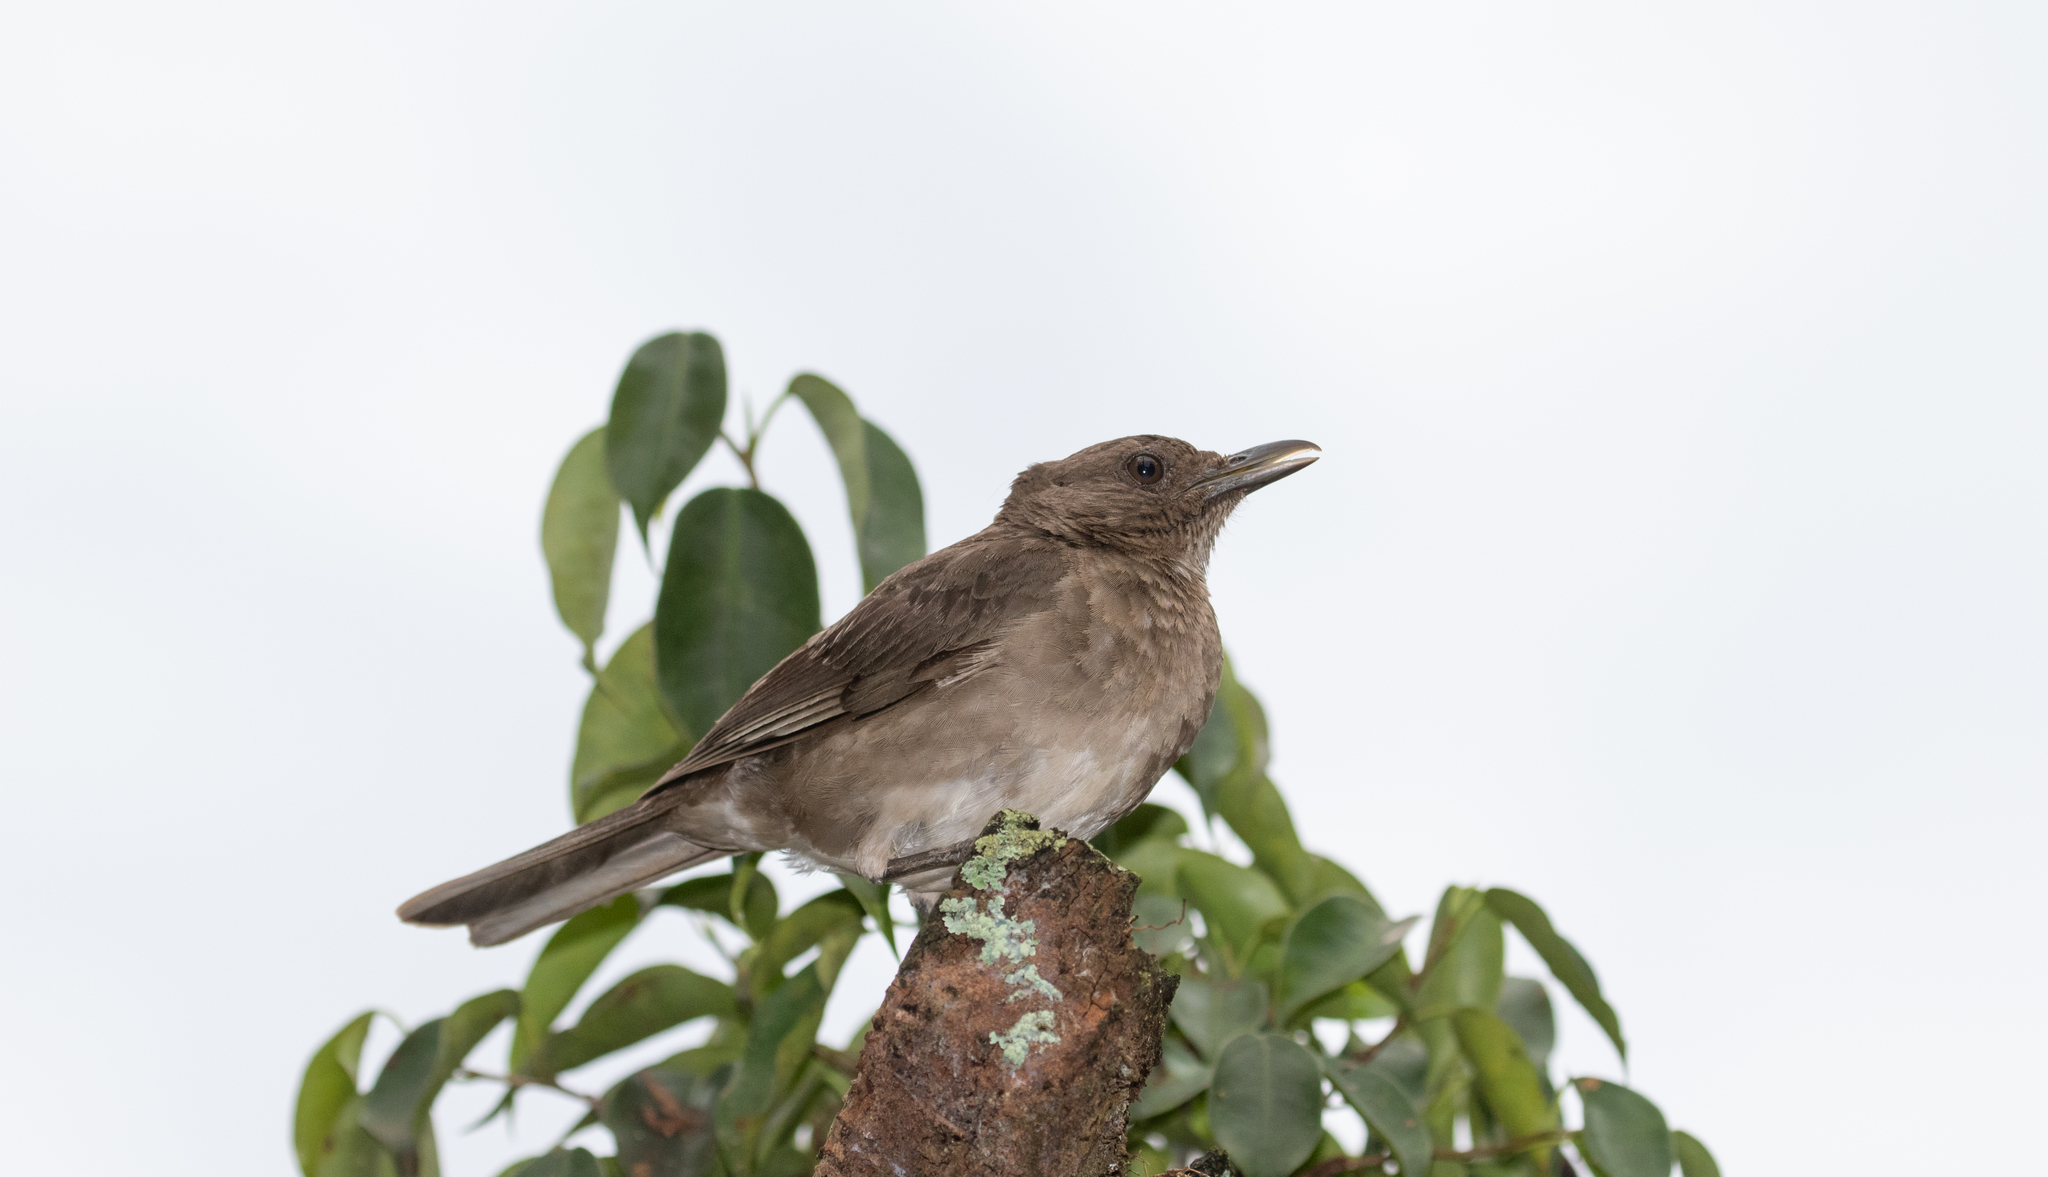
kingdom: Animalia
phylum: Chordata
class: Aves
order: Passeriformes
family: Turdidae
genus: Turdus
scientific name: Turdus ignobilis
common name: Black-billed thrush
